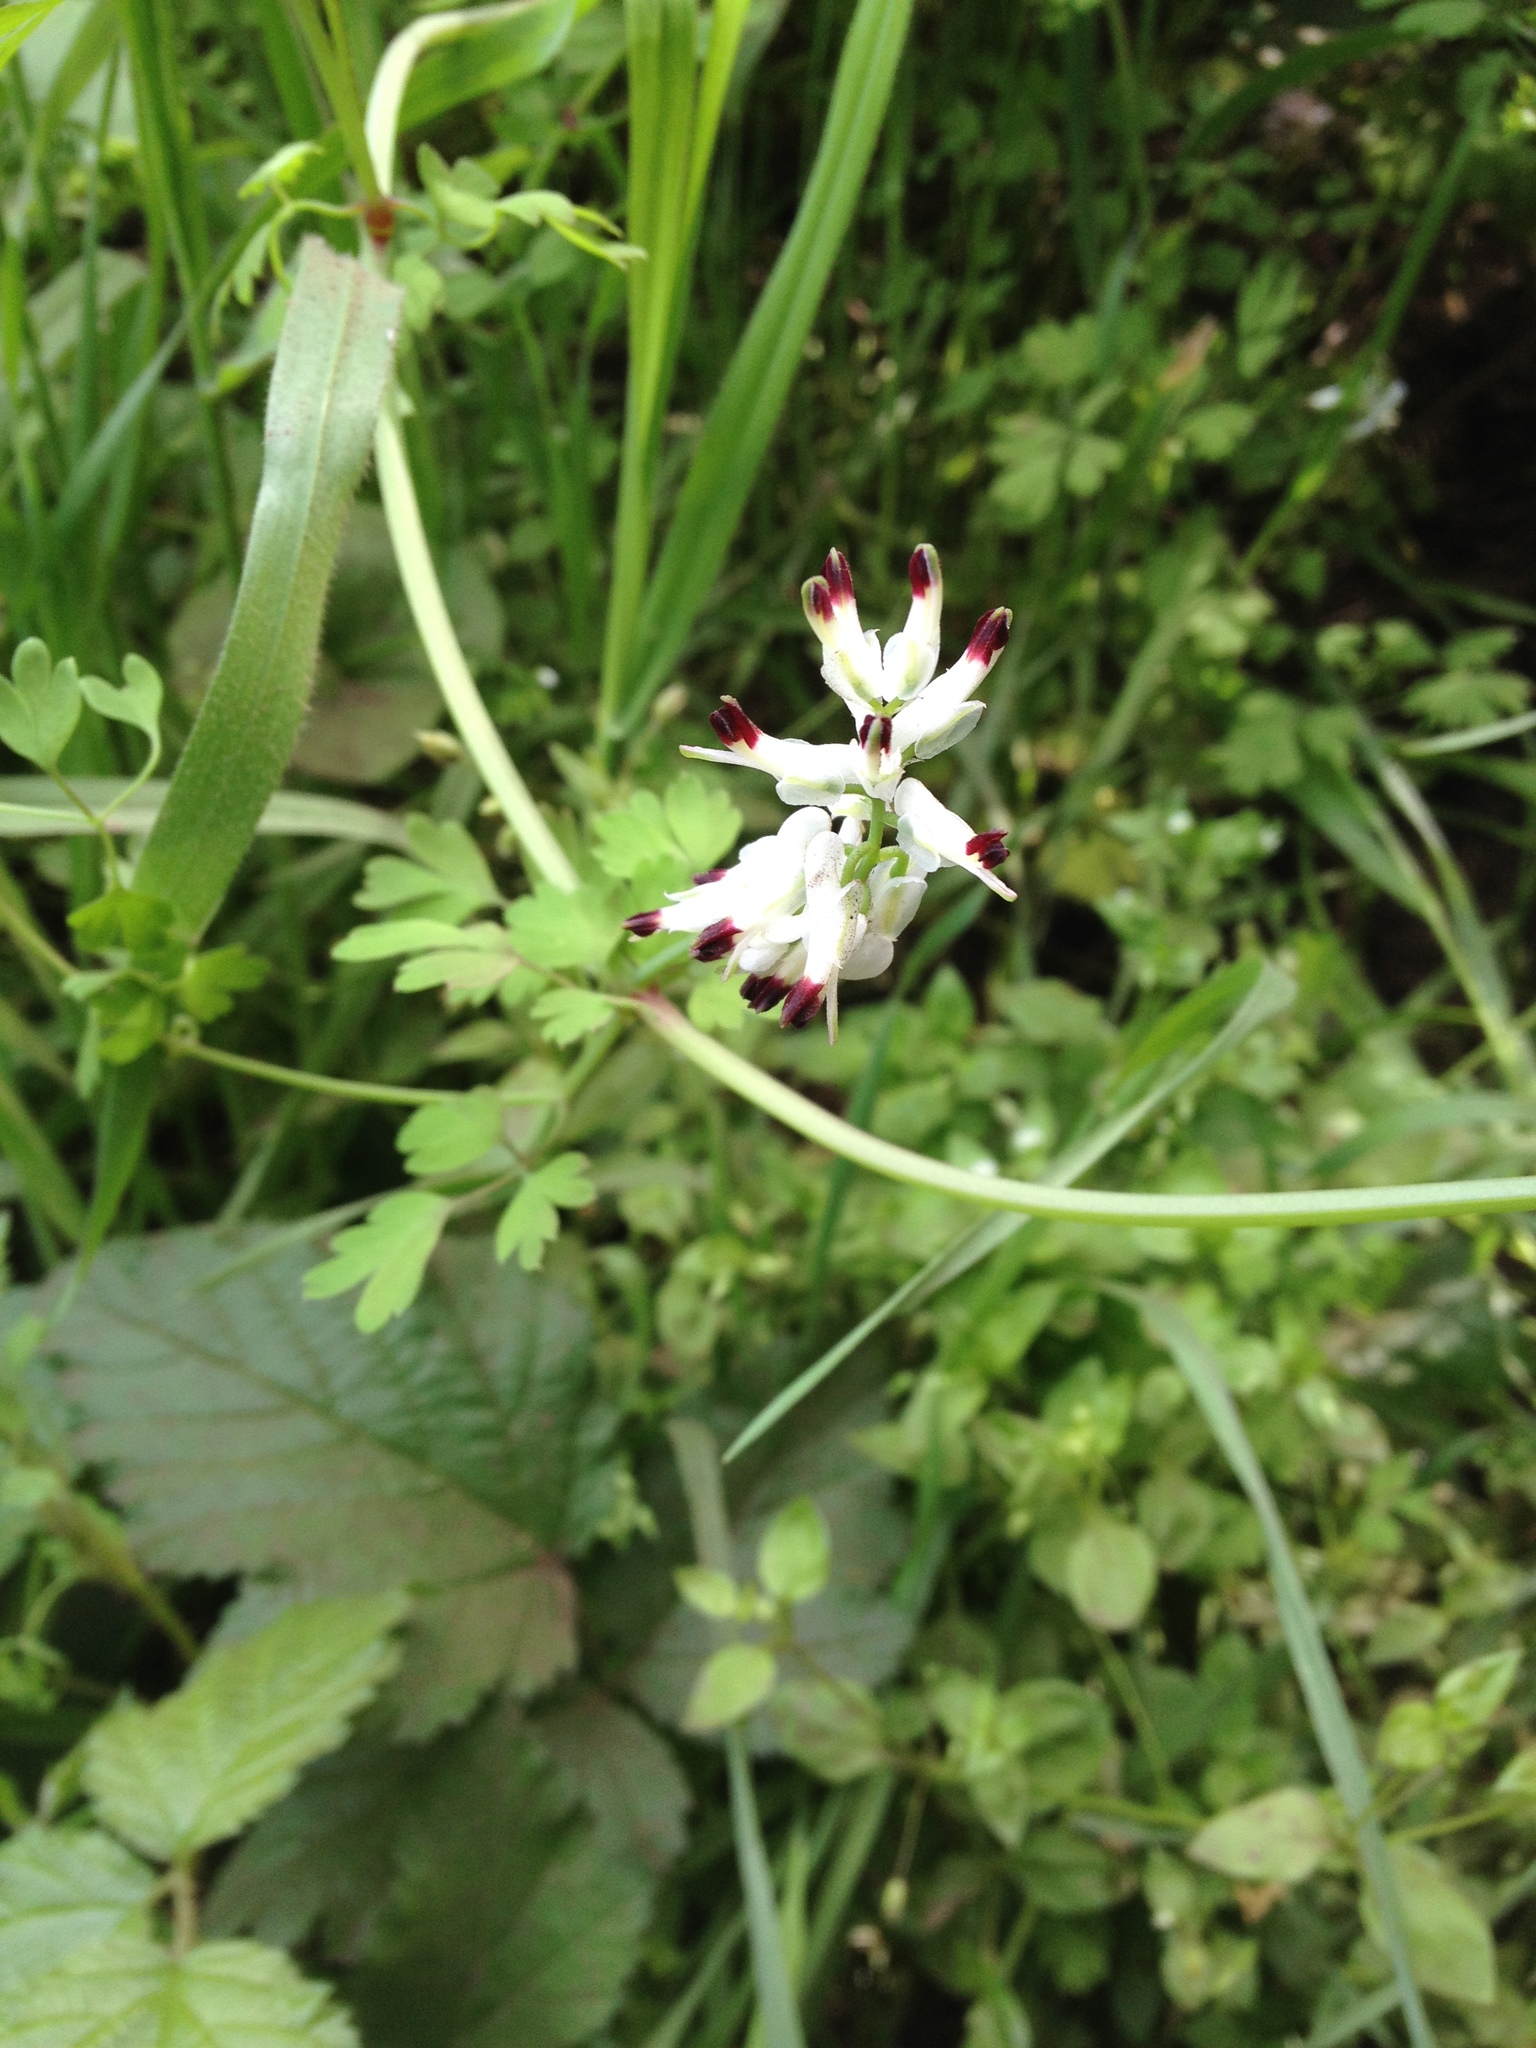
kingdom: Plantae
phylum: Tracheophyta
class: Magnoliopsida
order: Ranunculales
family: Papaveraceae
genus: Fumaria
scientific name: Fumaria capreolata
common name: White ramping-fumitory
